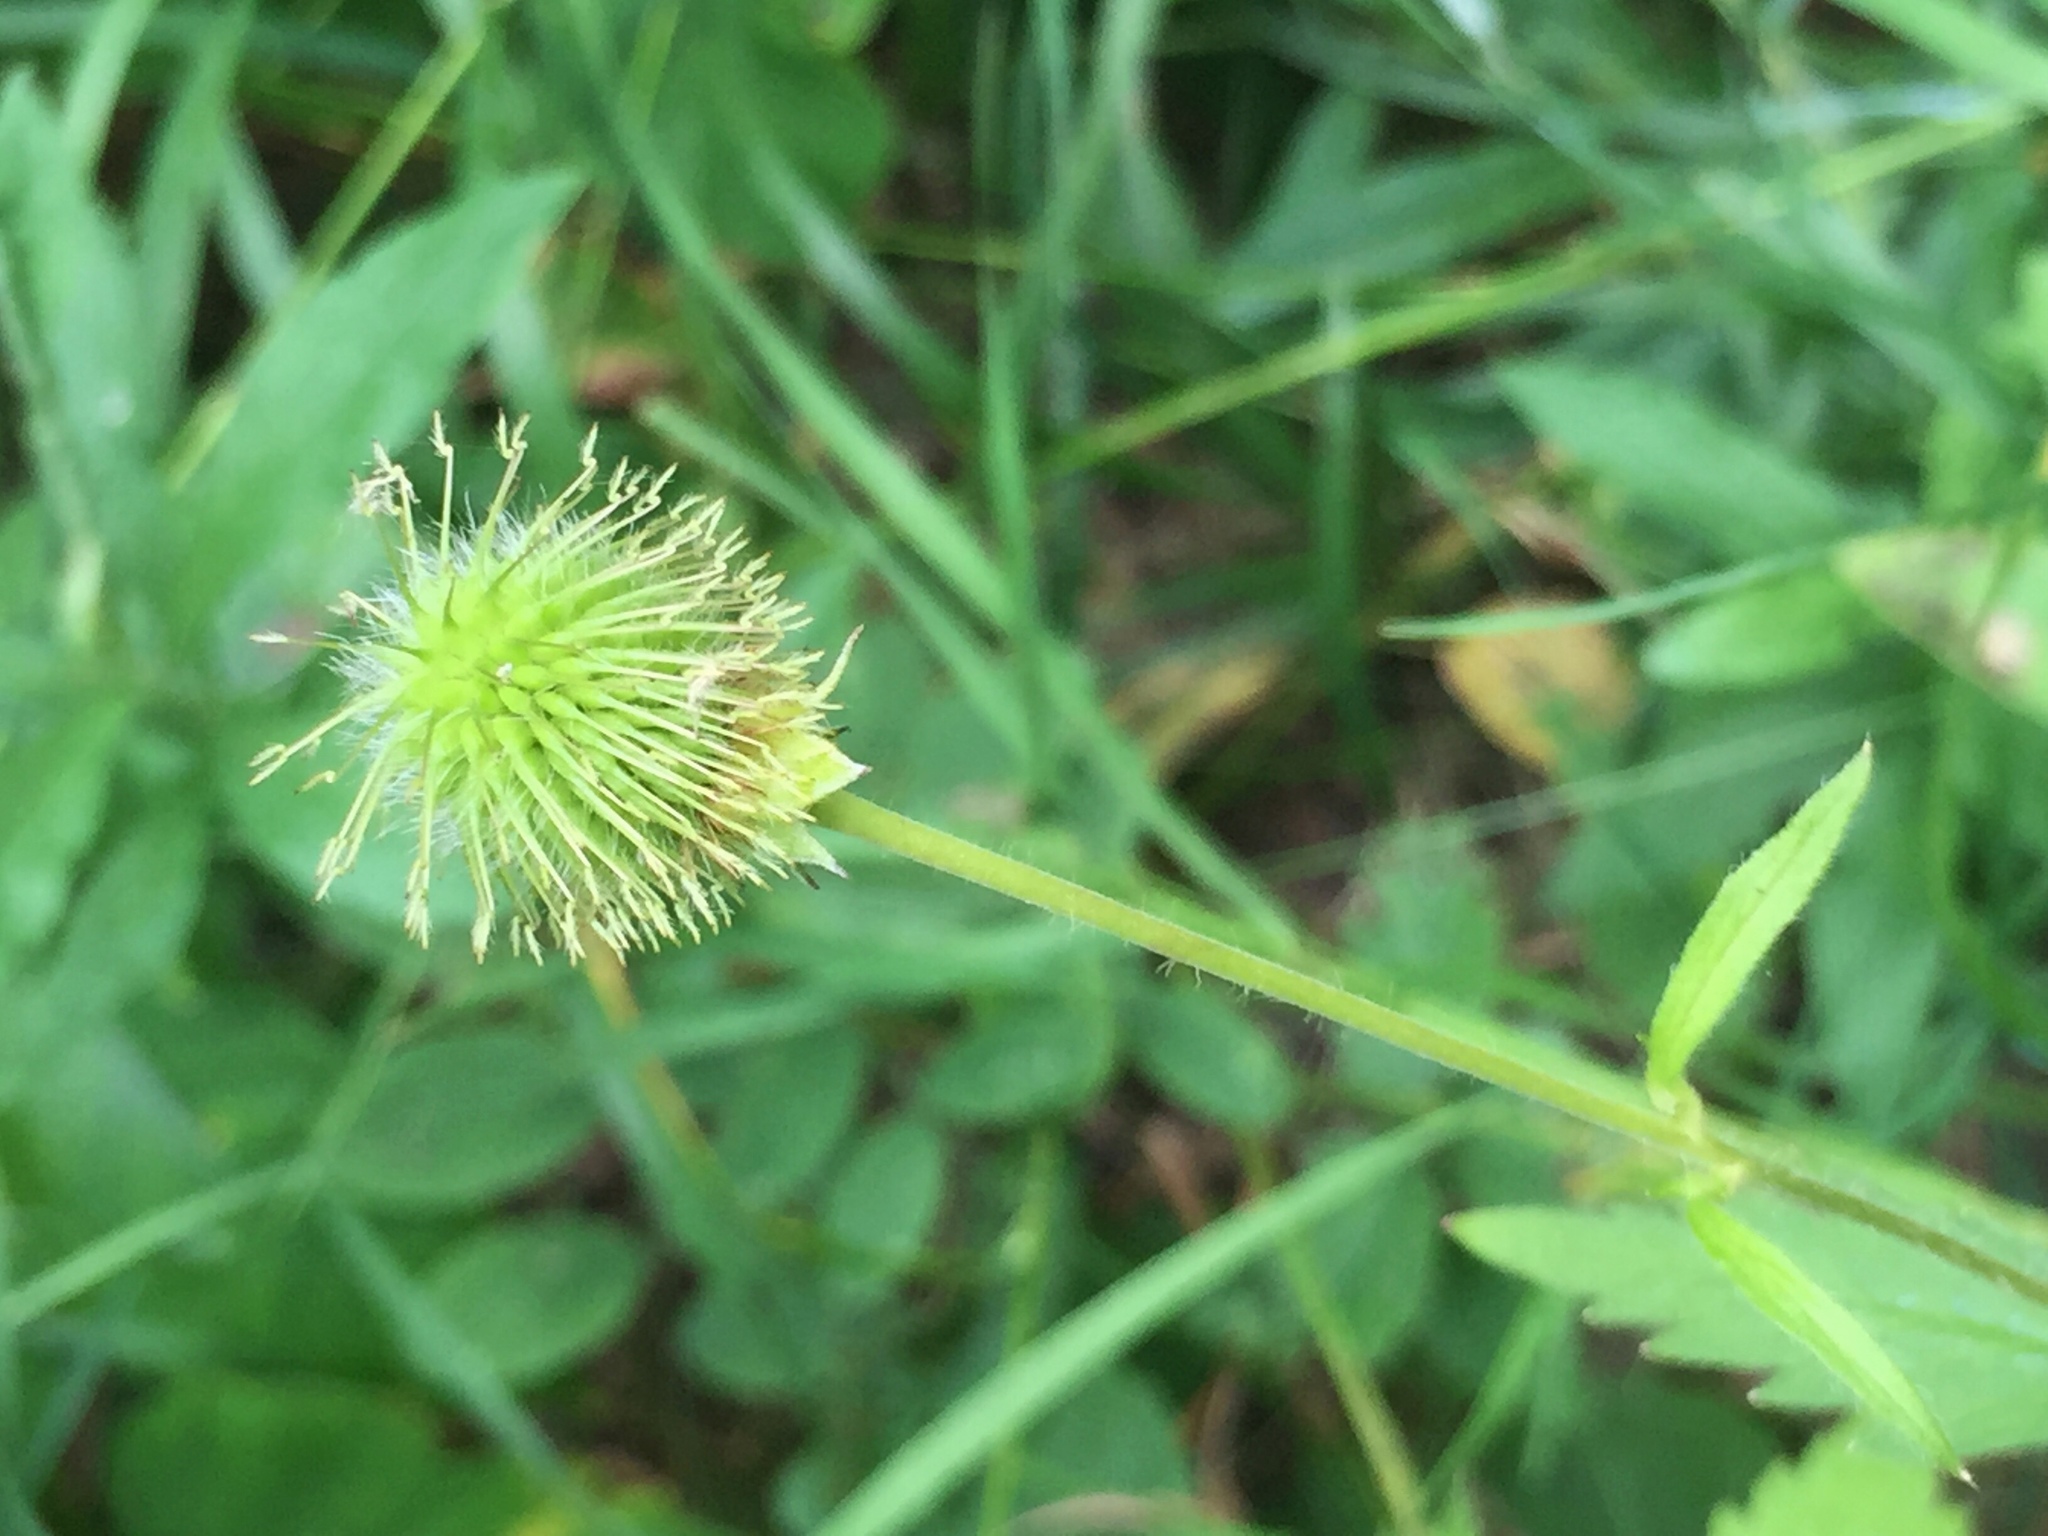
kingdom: Plantae
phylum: Tracheophyta
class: Magnoliopsida
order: Rosales
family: Rosaceae
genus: Geum
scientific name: Geum aleppicum
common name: Yellow avens
